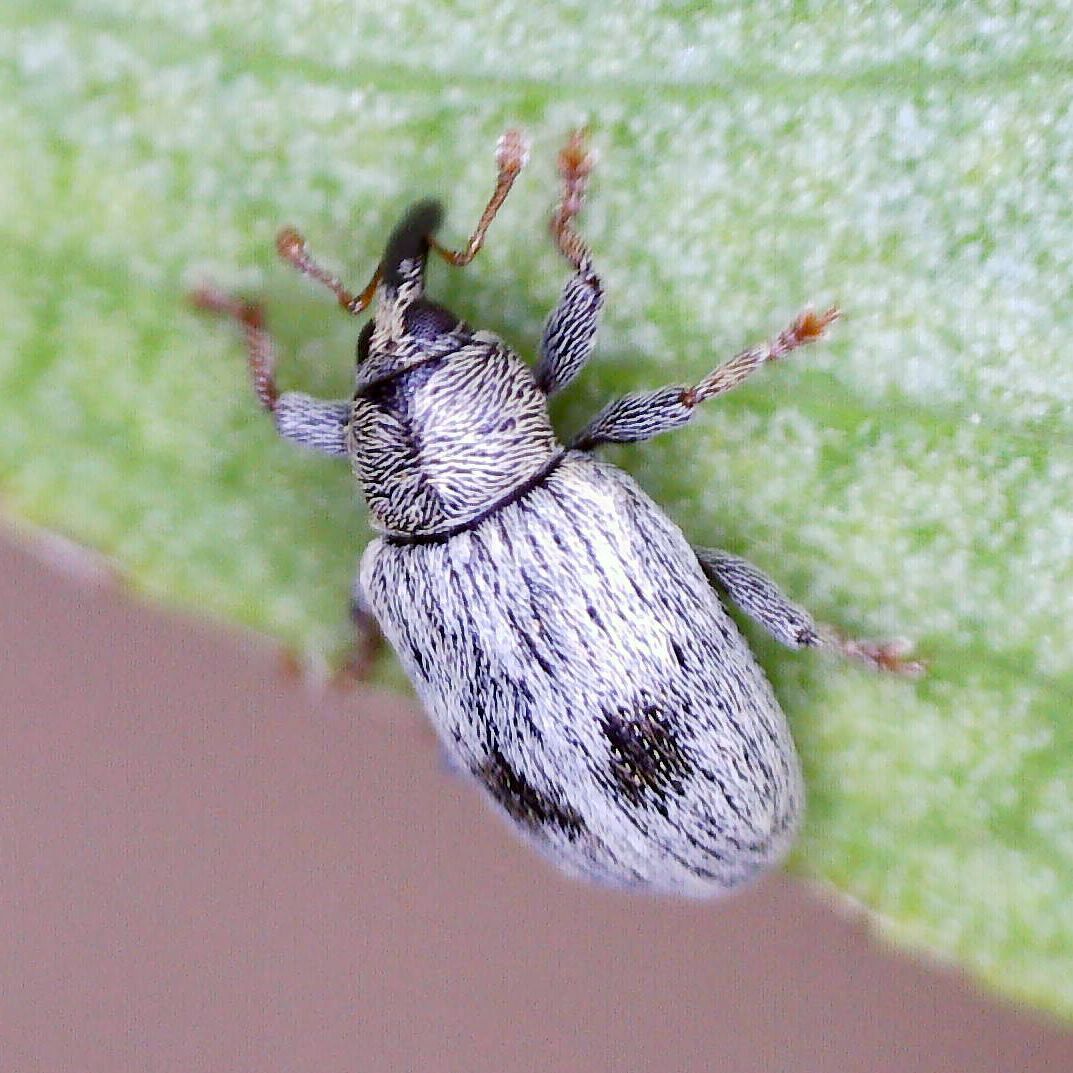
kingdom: Animalia
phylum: Arthropoda
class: Insecta
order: Coleoptera
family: Curculionidae
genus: Ellescus
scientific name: Ellescus bipunctatus
